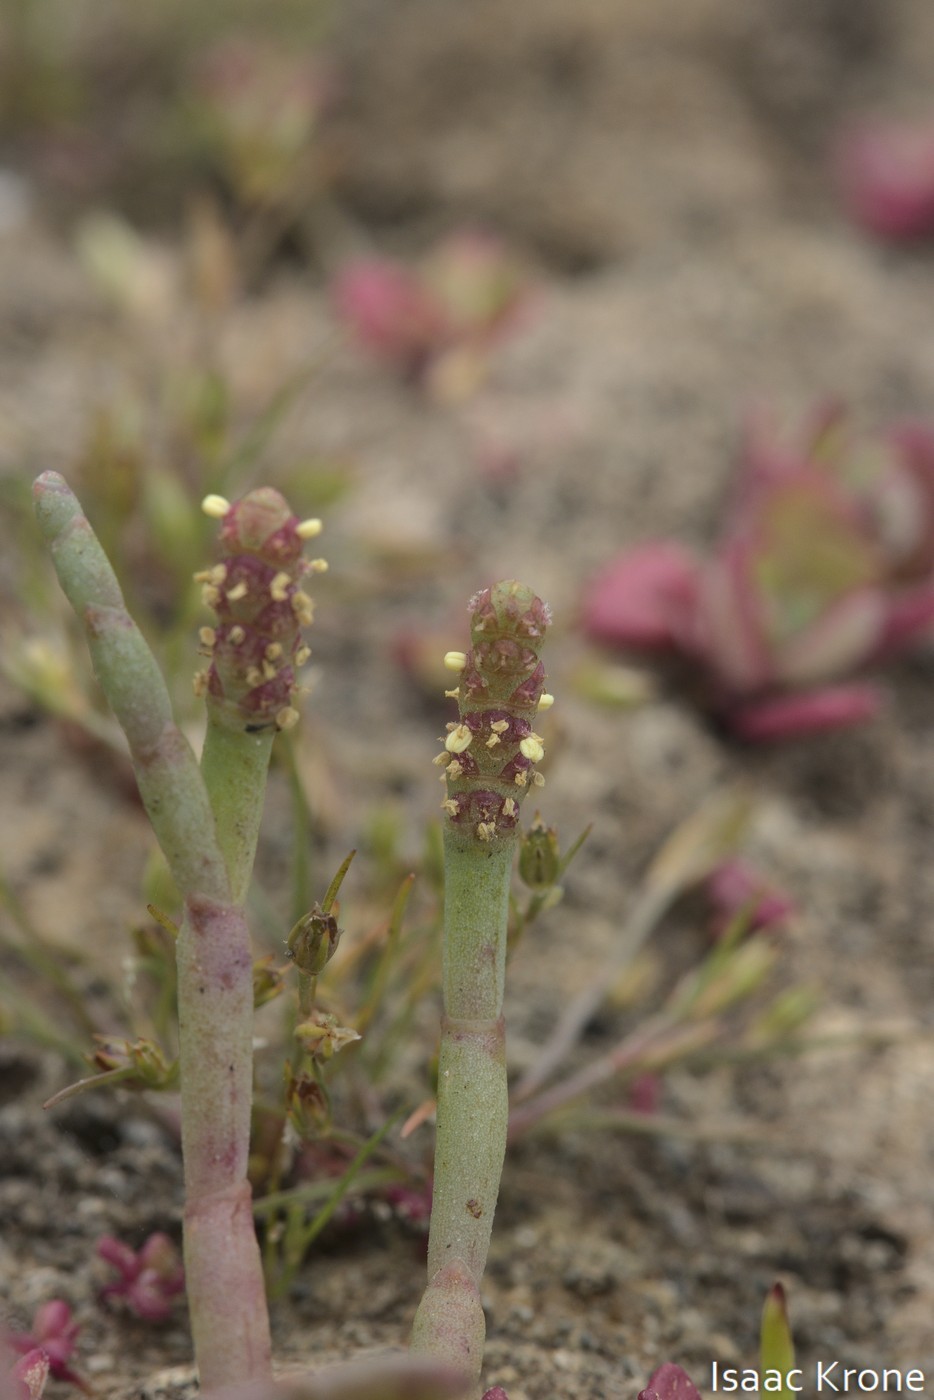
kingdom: Plantae
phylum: Tracheophyta
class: Magnoliopsida
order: Caryophyllales
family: Amaranthaceae
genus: Salicornia
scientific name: Salicornia pacifica
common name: Pacific glasswort
